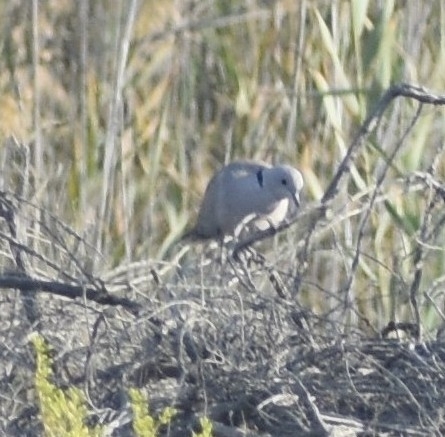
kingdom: Animalia
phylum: Chordata
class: Aves
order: Columbiformes
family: Columbidae
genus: Streptopelia
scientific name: Streptopelia decaocto
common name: Eurasian collared dove
